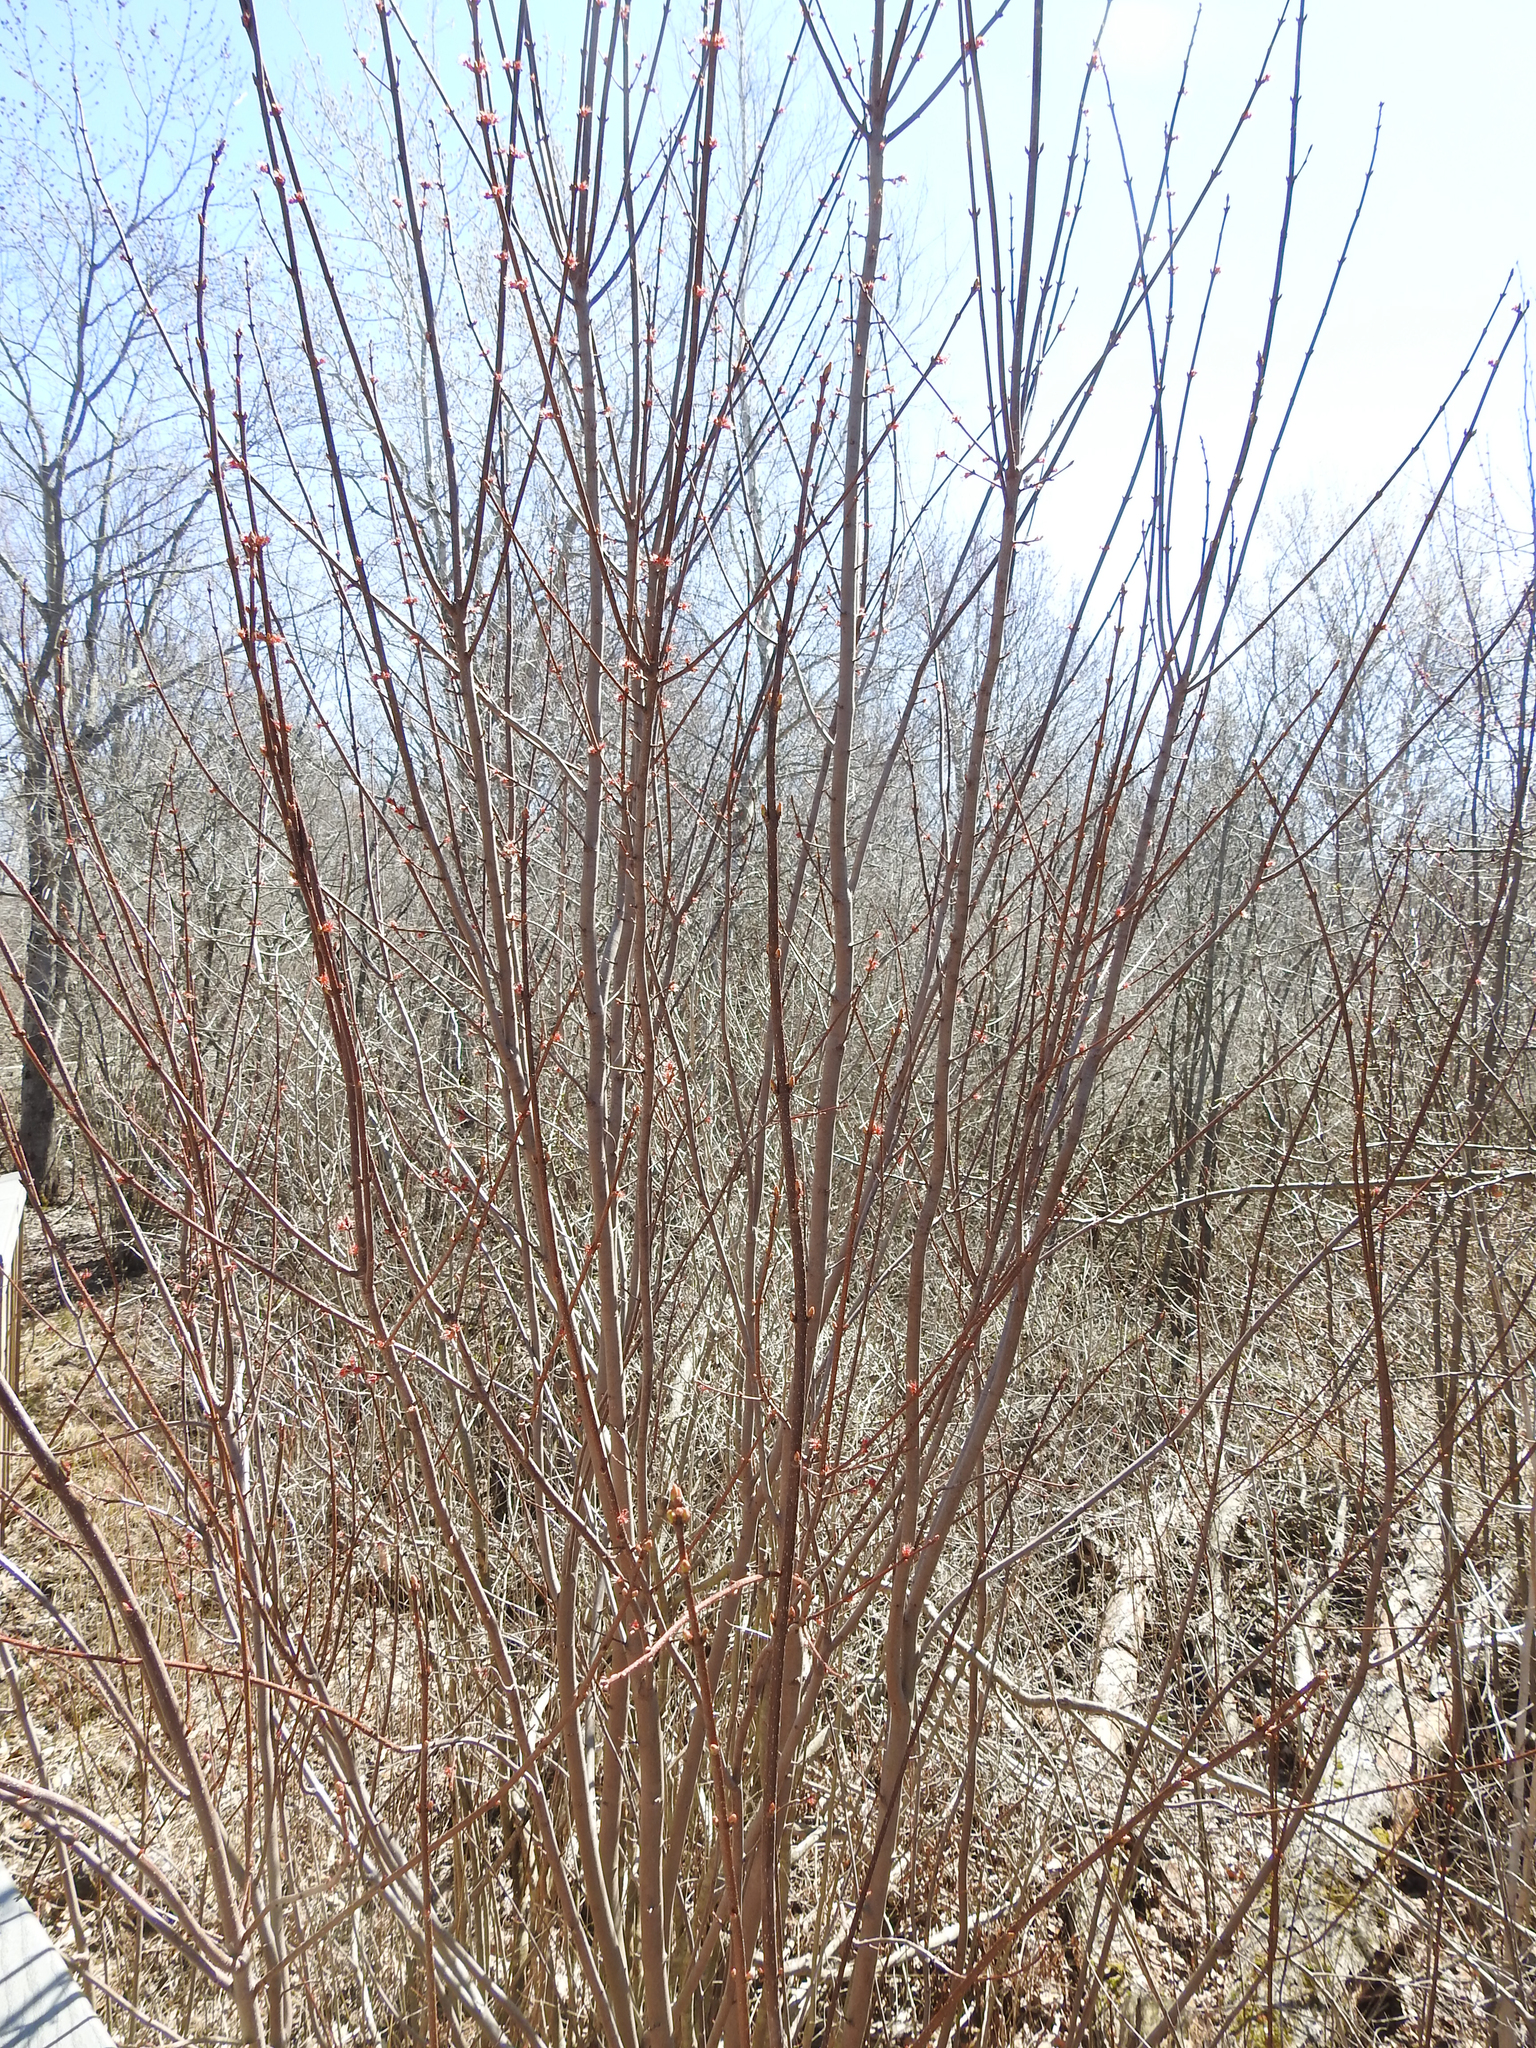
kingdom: Plantae
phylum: Tracheophyta
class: Magnoliopsida
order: Sapindales
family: Sapindaceae
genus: Acer
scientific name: Acer rubrum
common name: Red maple
